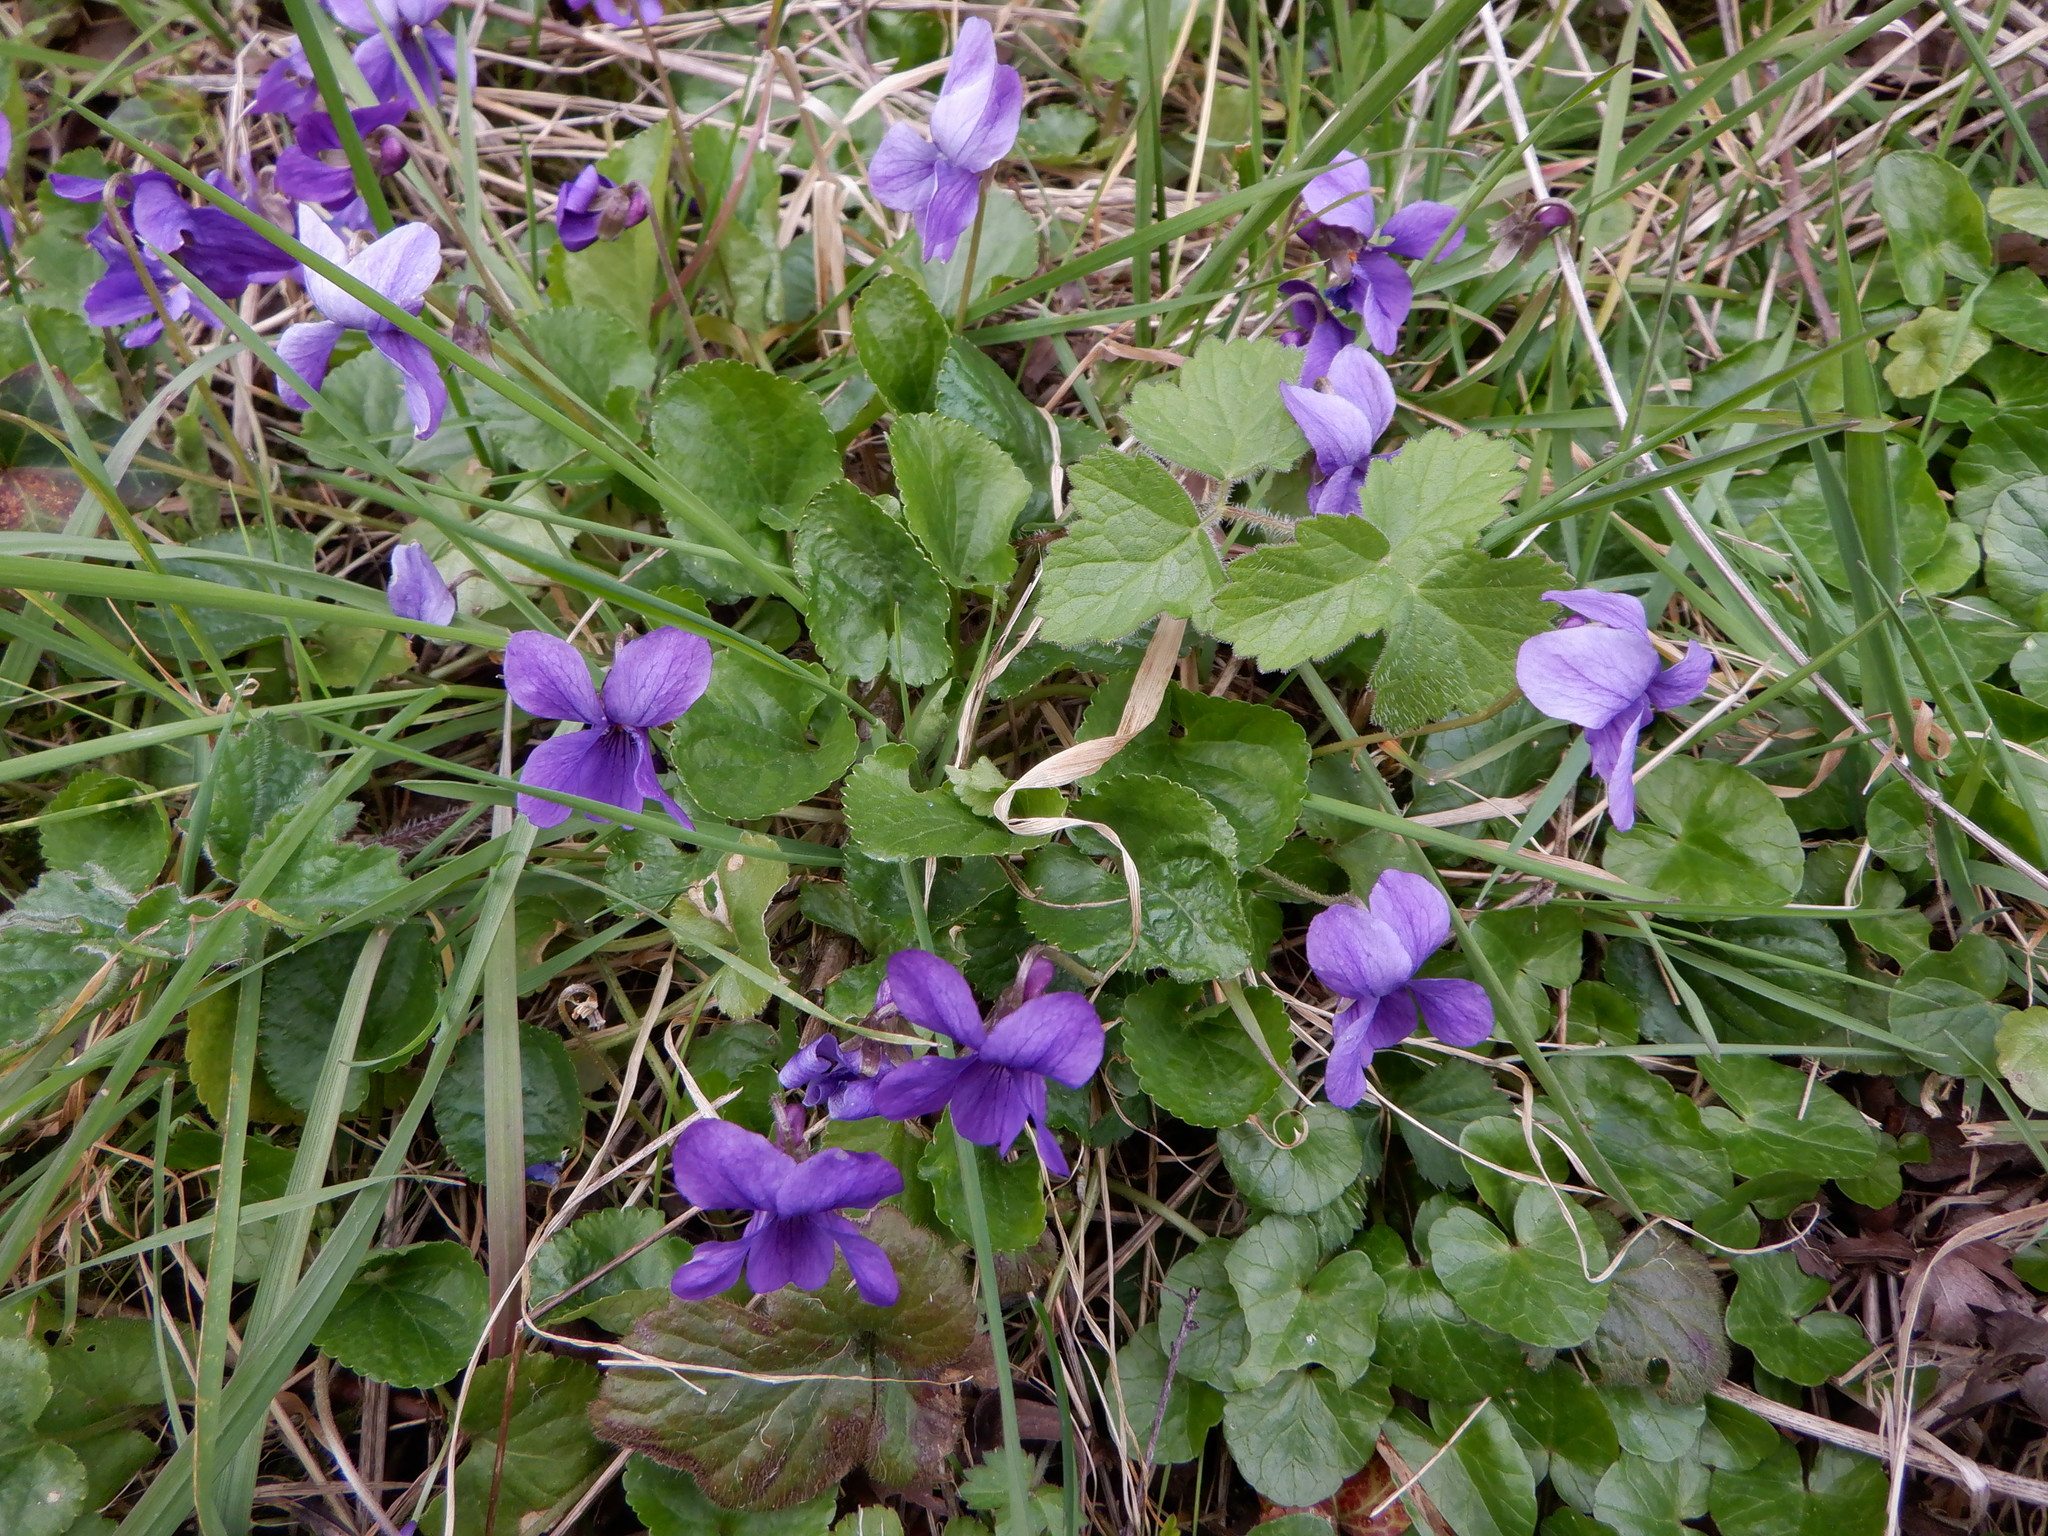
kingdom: Plantae
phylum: Tracheophyta
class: Magnoliopsida
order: Malpighiales
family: Violaceae
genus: Viola
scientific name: Viola odorata
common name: Sweet violet
